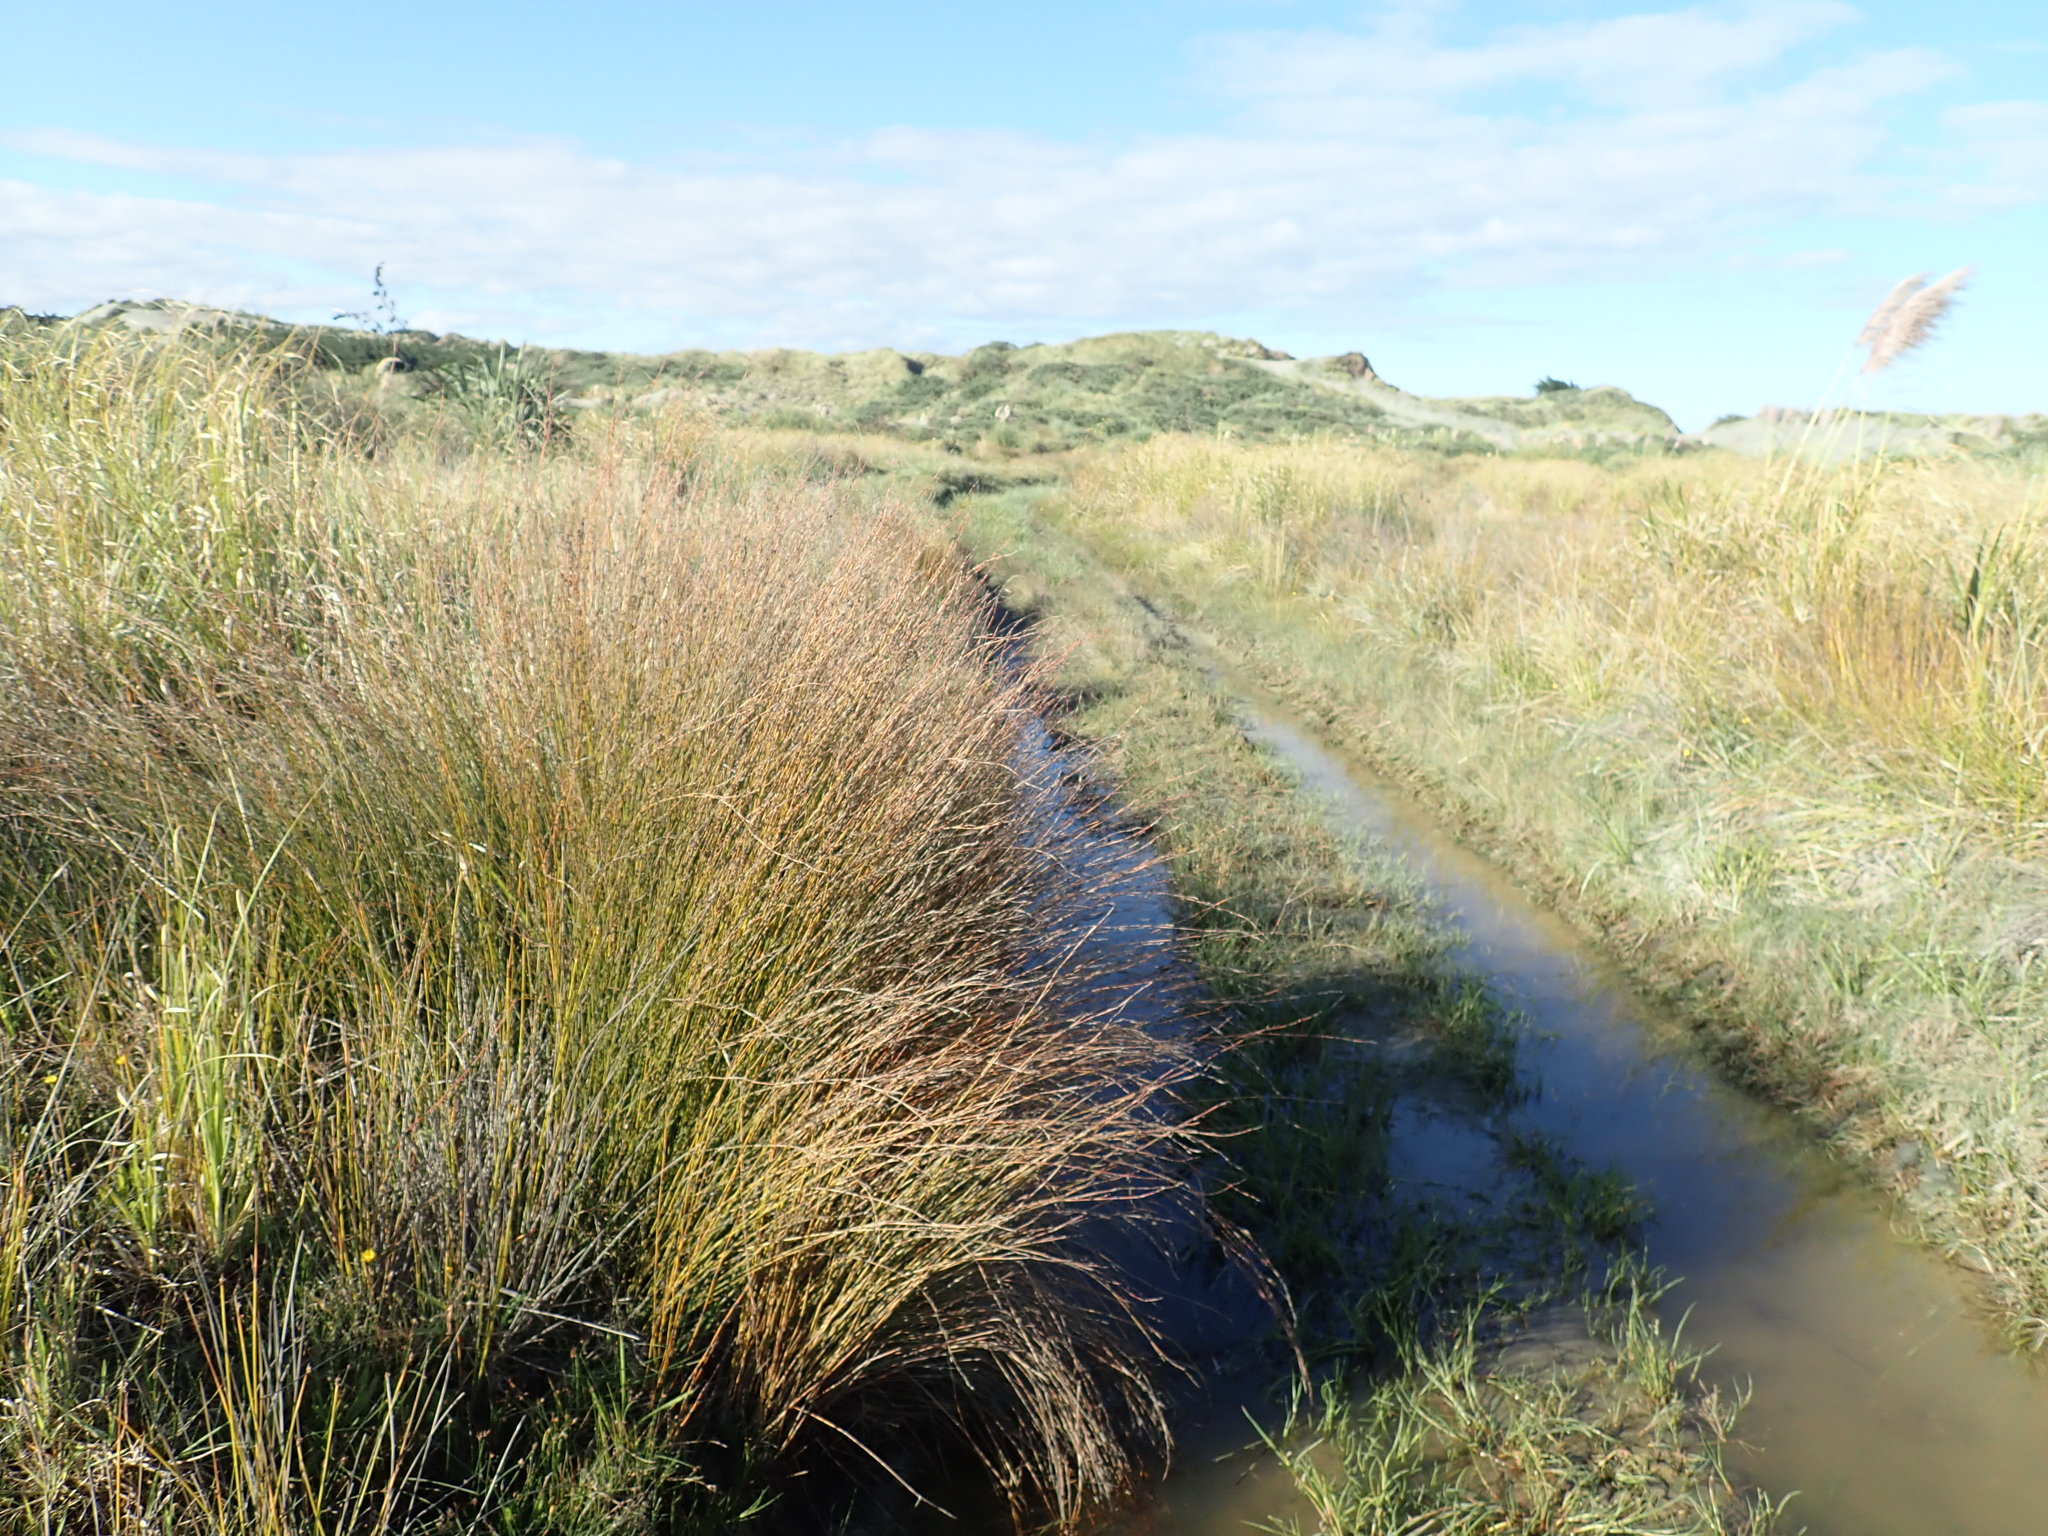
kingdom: Plantae
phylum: Tracheophyta
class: Liliopsida
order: Poales
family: Restionaceae
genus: Apodasmia
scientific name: Apodasmia similis
